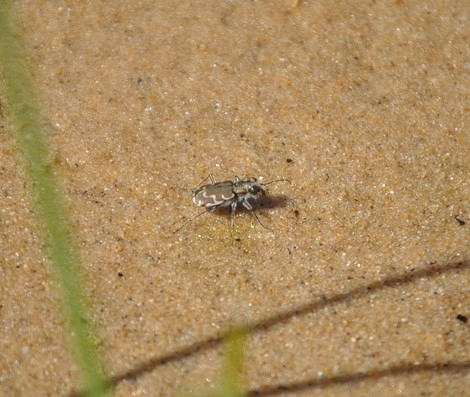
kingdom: Animalia
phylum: Arthropoda
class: Insecta
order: Coleoptera
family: Carabidae
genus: Cicindela
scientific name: Cicindela repanda
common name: Bronzed tiger beetle
